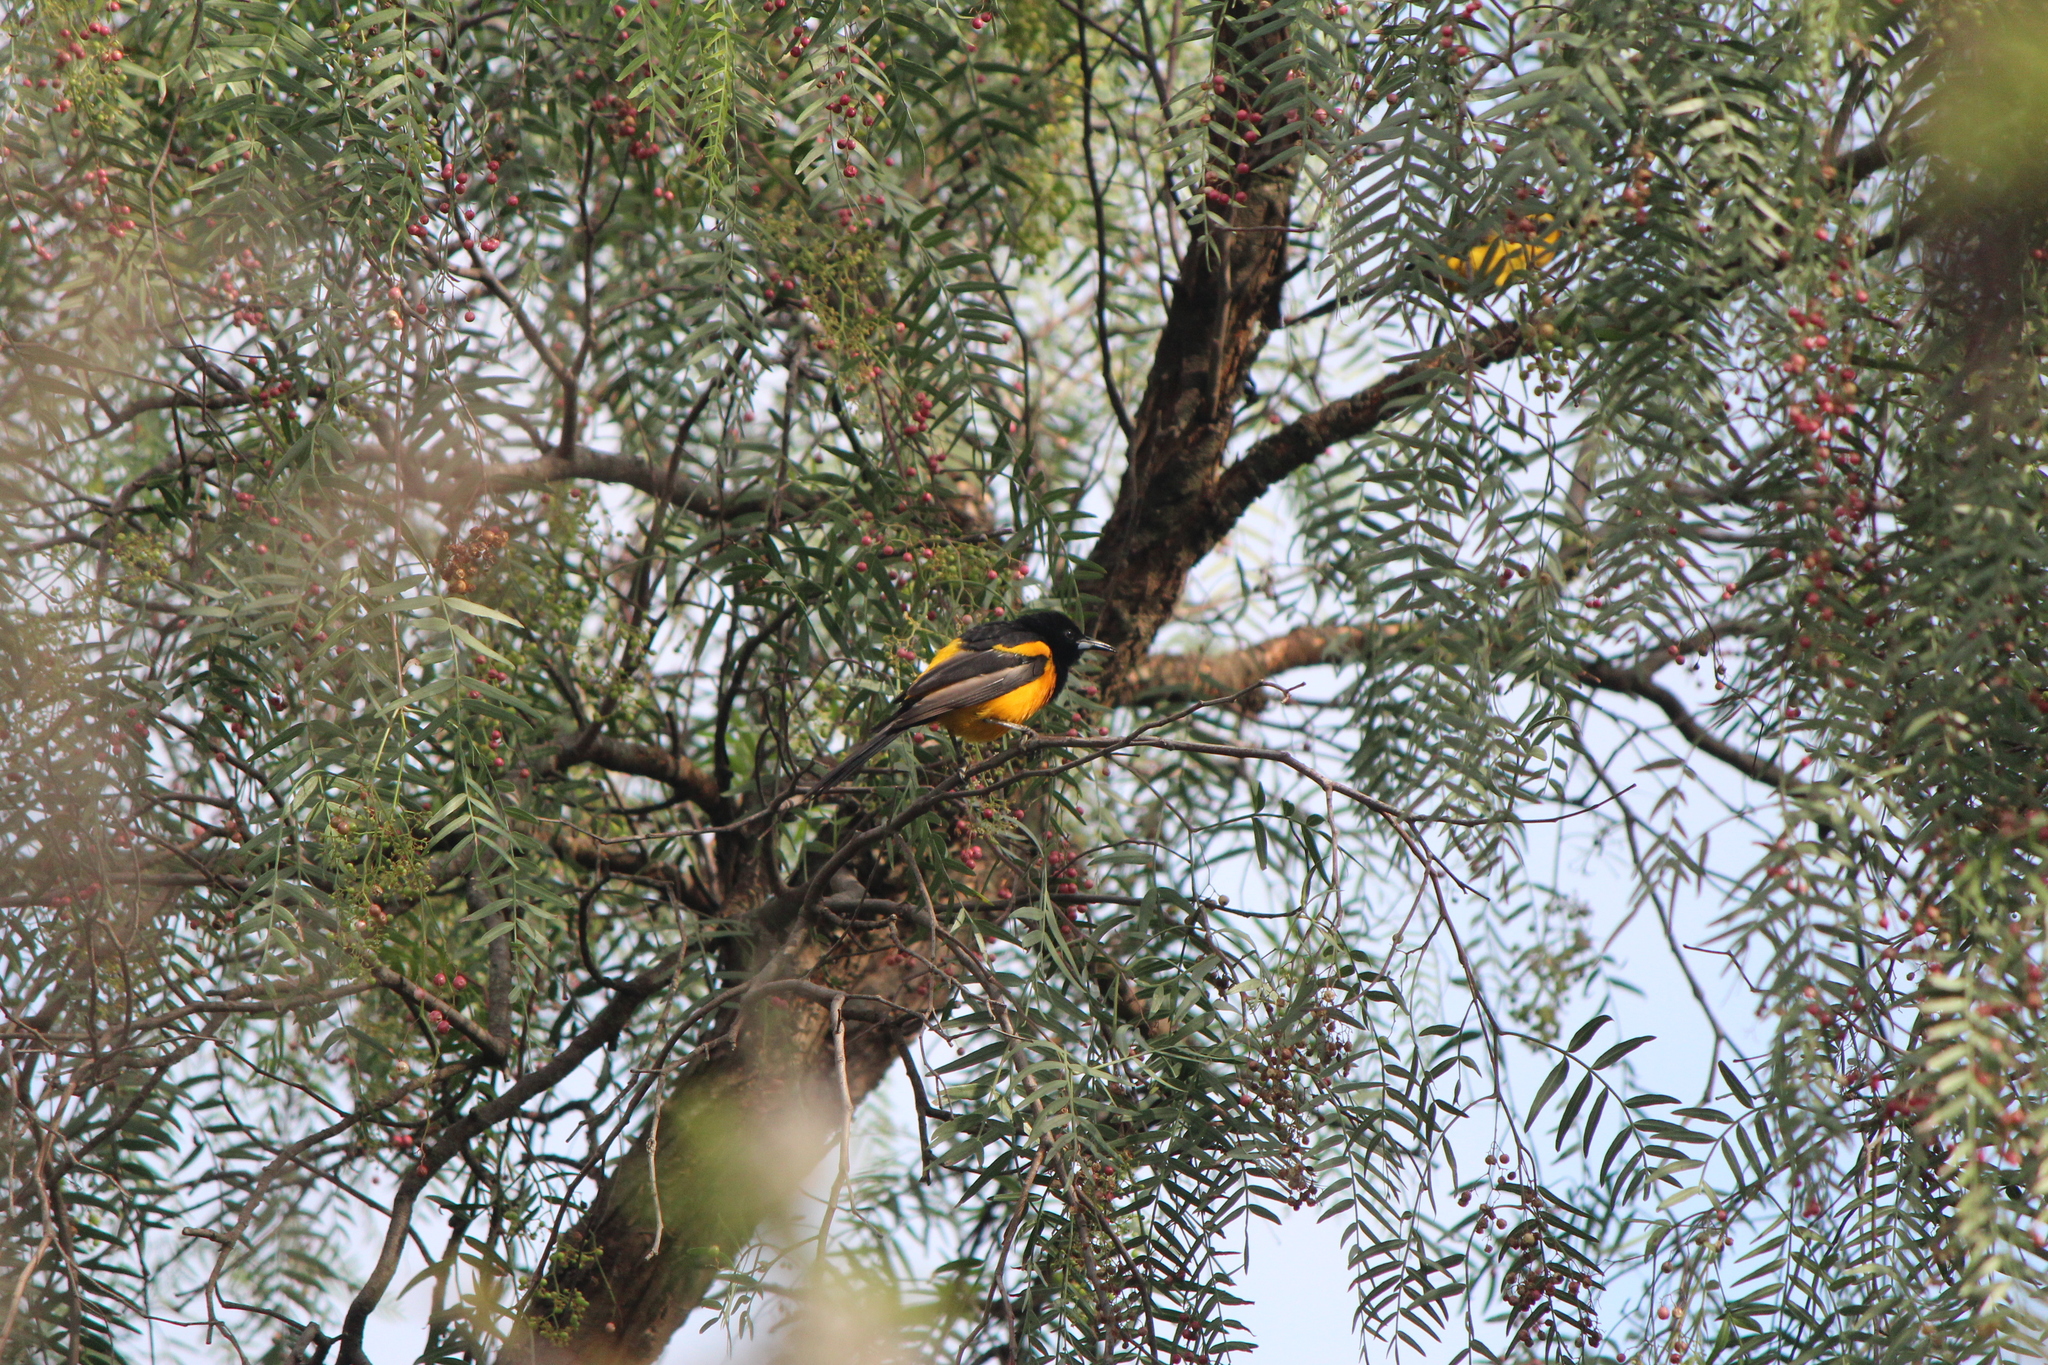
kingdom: Animalia
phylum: Chordata
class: Aves
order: Passeriformes
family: Icteridae
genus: Icterus
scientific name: Icterus wagleri
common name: Black-vented oriole
